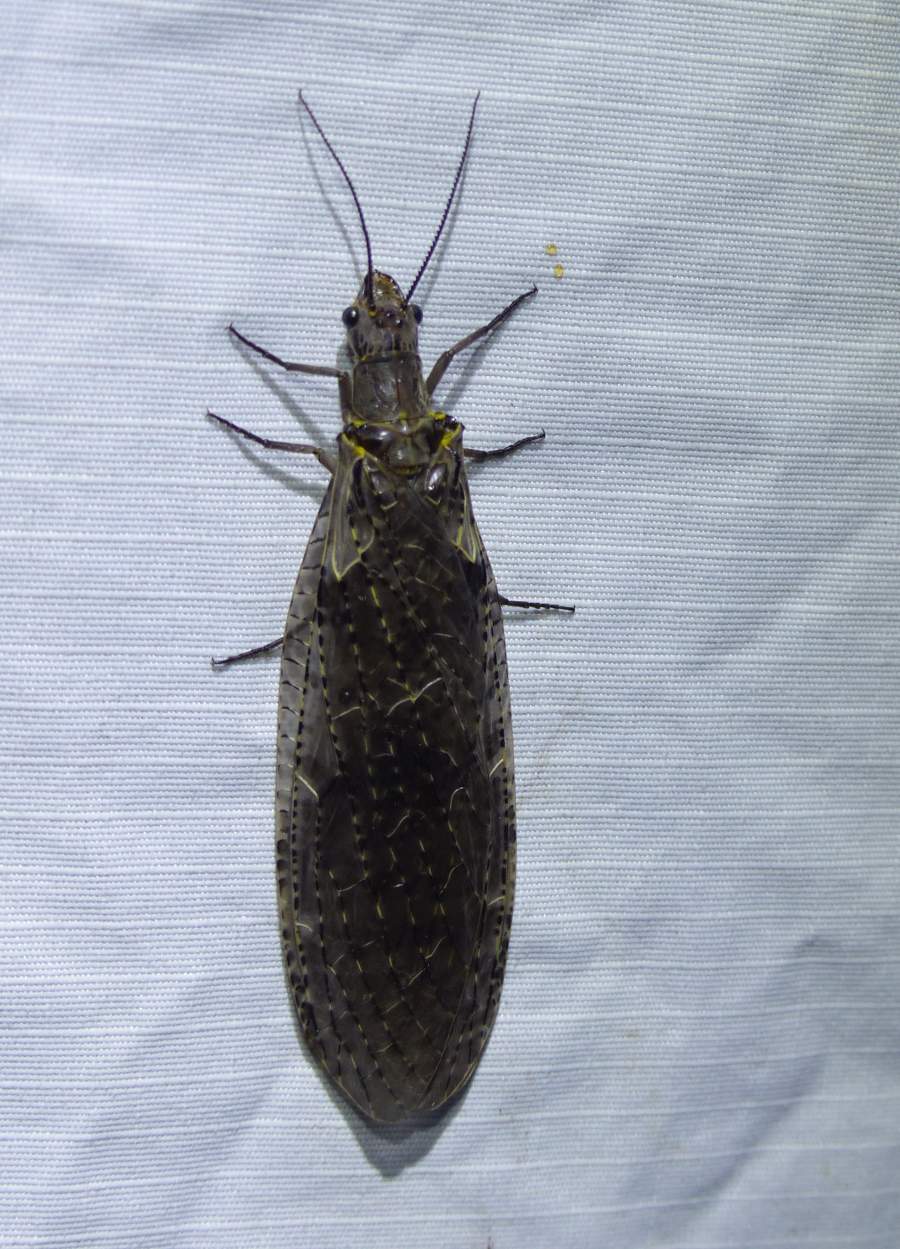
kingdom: Animalia
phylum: Arthropoda
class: Insecta
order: Megaloptera
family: Corydalidae
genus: Chauliodes
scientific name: Chauliodes rastricornis
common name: Spring fishfly
